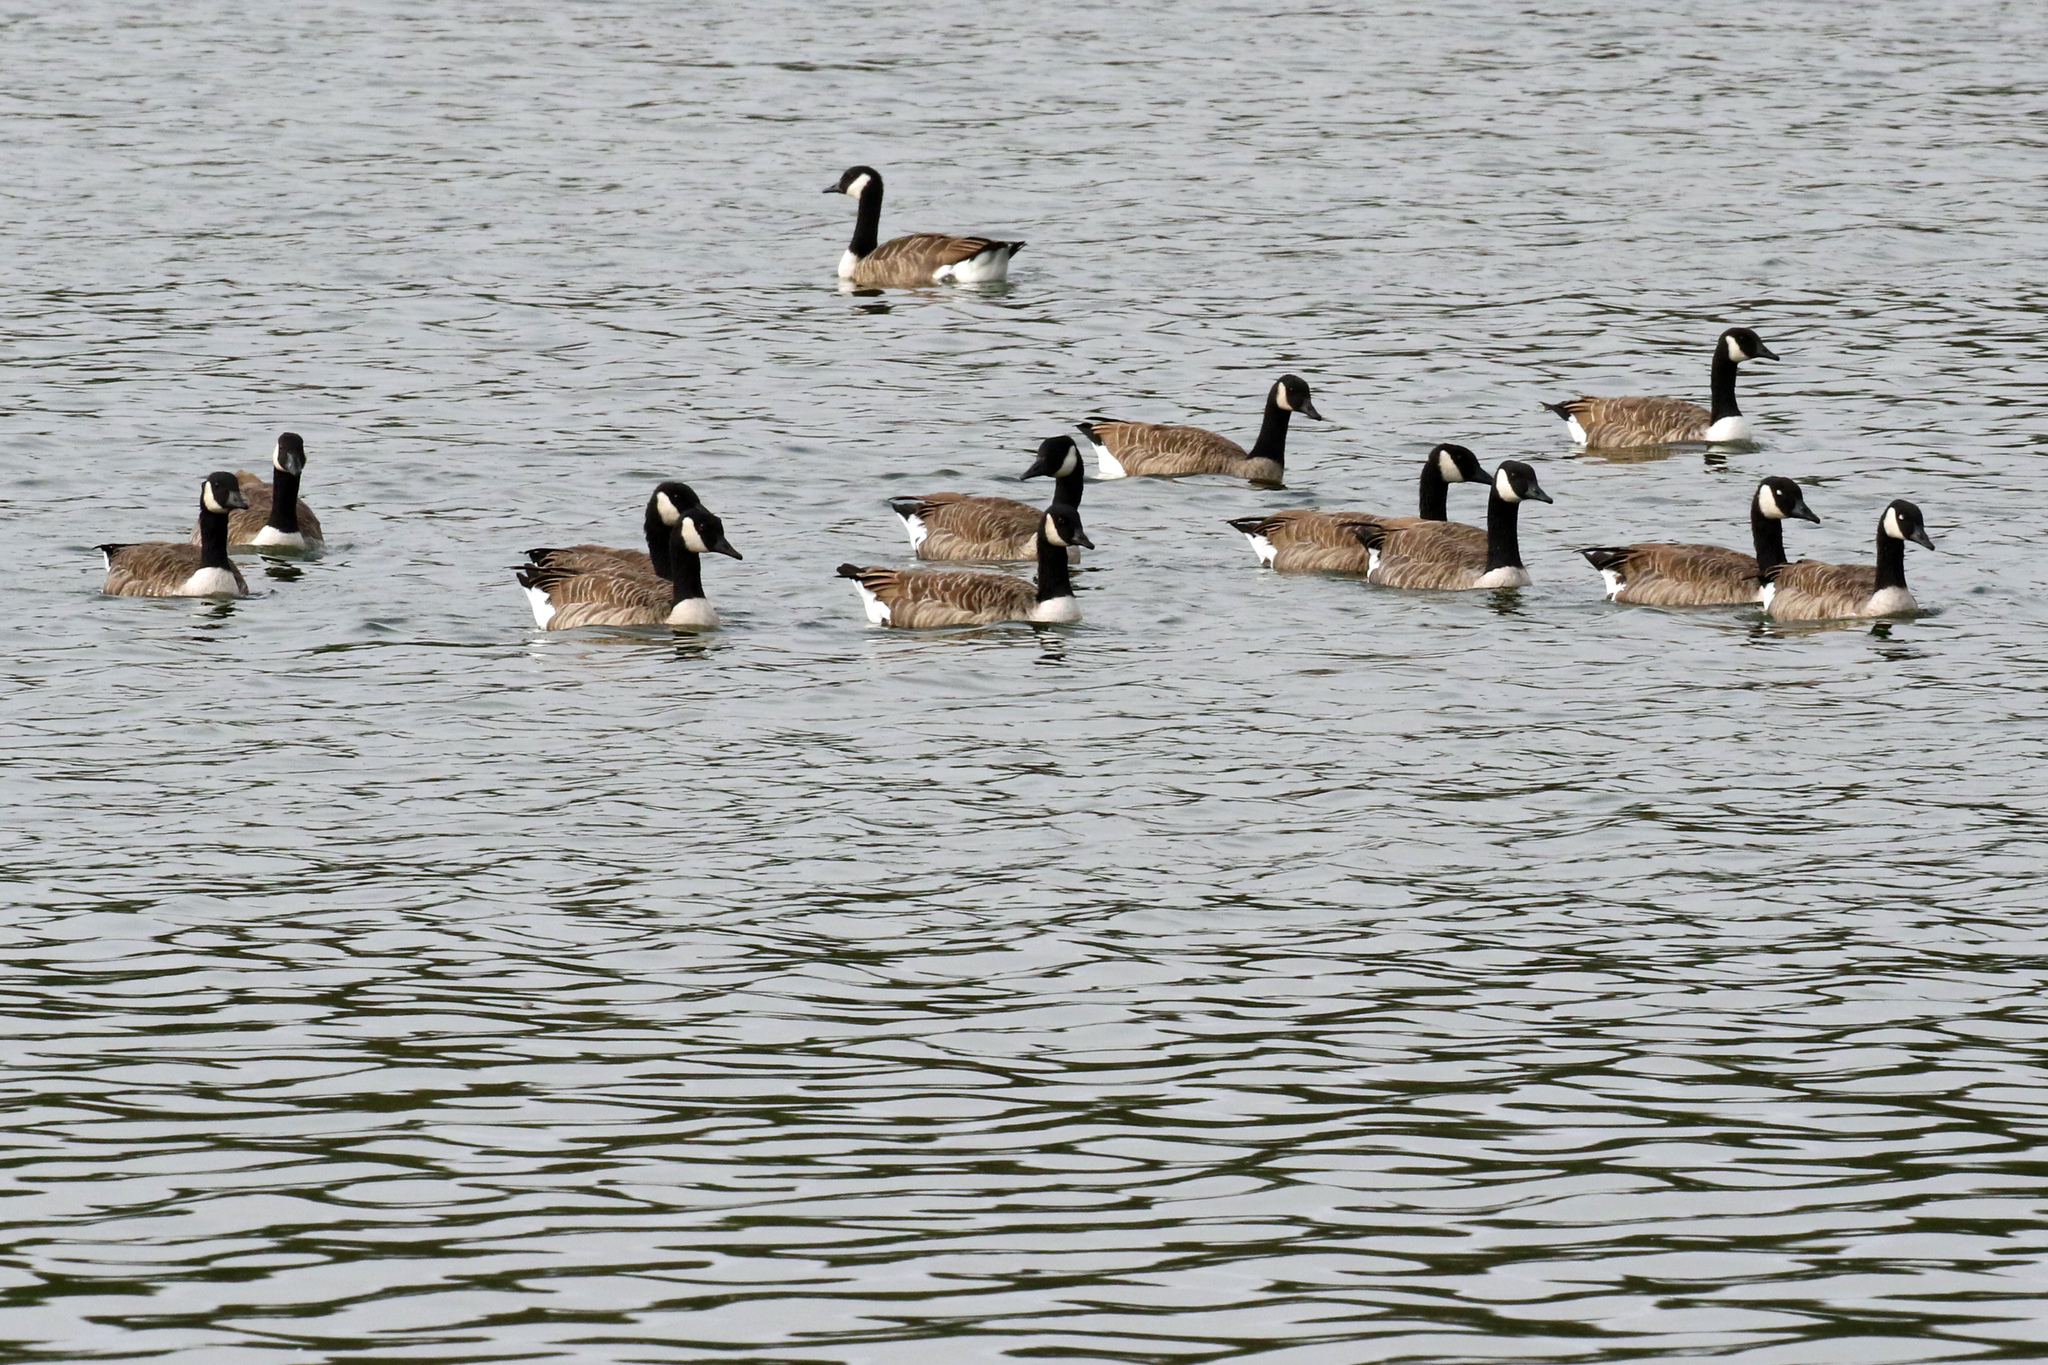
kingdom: Animalia
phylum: Chordata
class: Aves
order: Anseriformes
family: Anatidae
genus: Branta
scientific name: Branta canadensis
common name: Canada goose
